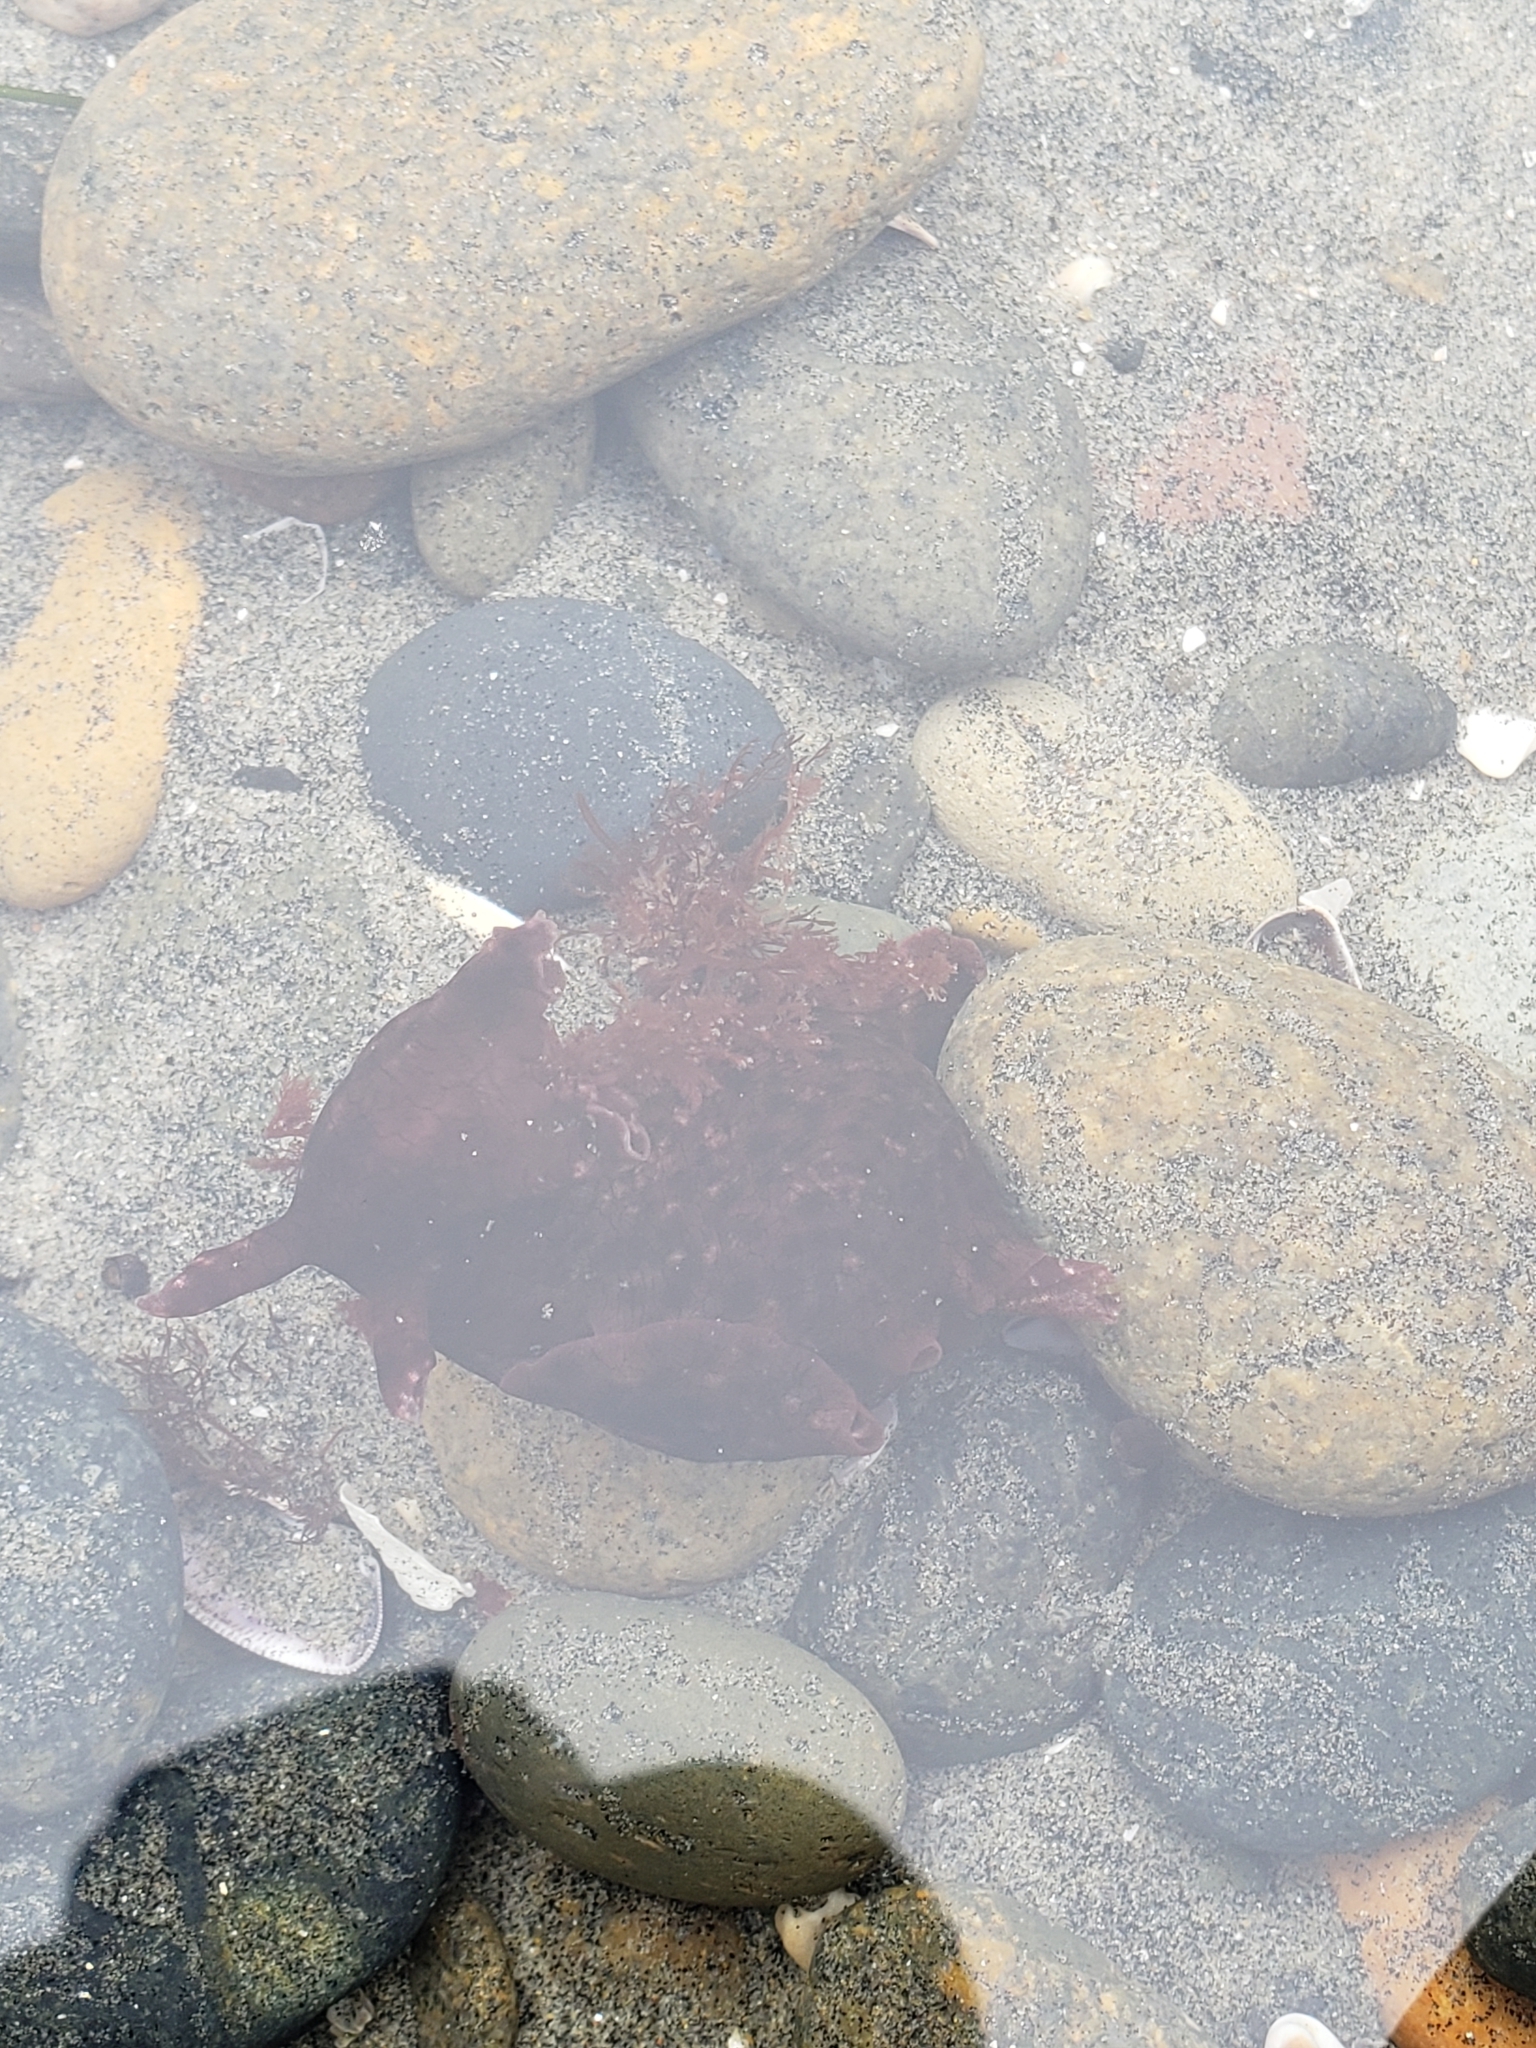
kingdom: Animalia
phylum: Mollusca
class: Gastropoda
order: Aplysiida
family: Aplysiidae
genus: Aplysia
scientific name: Aplysia californica
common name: California seahare
